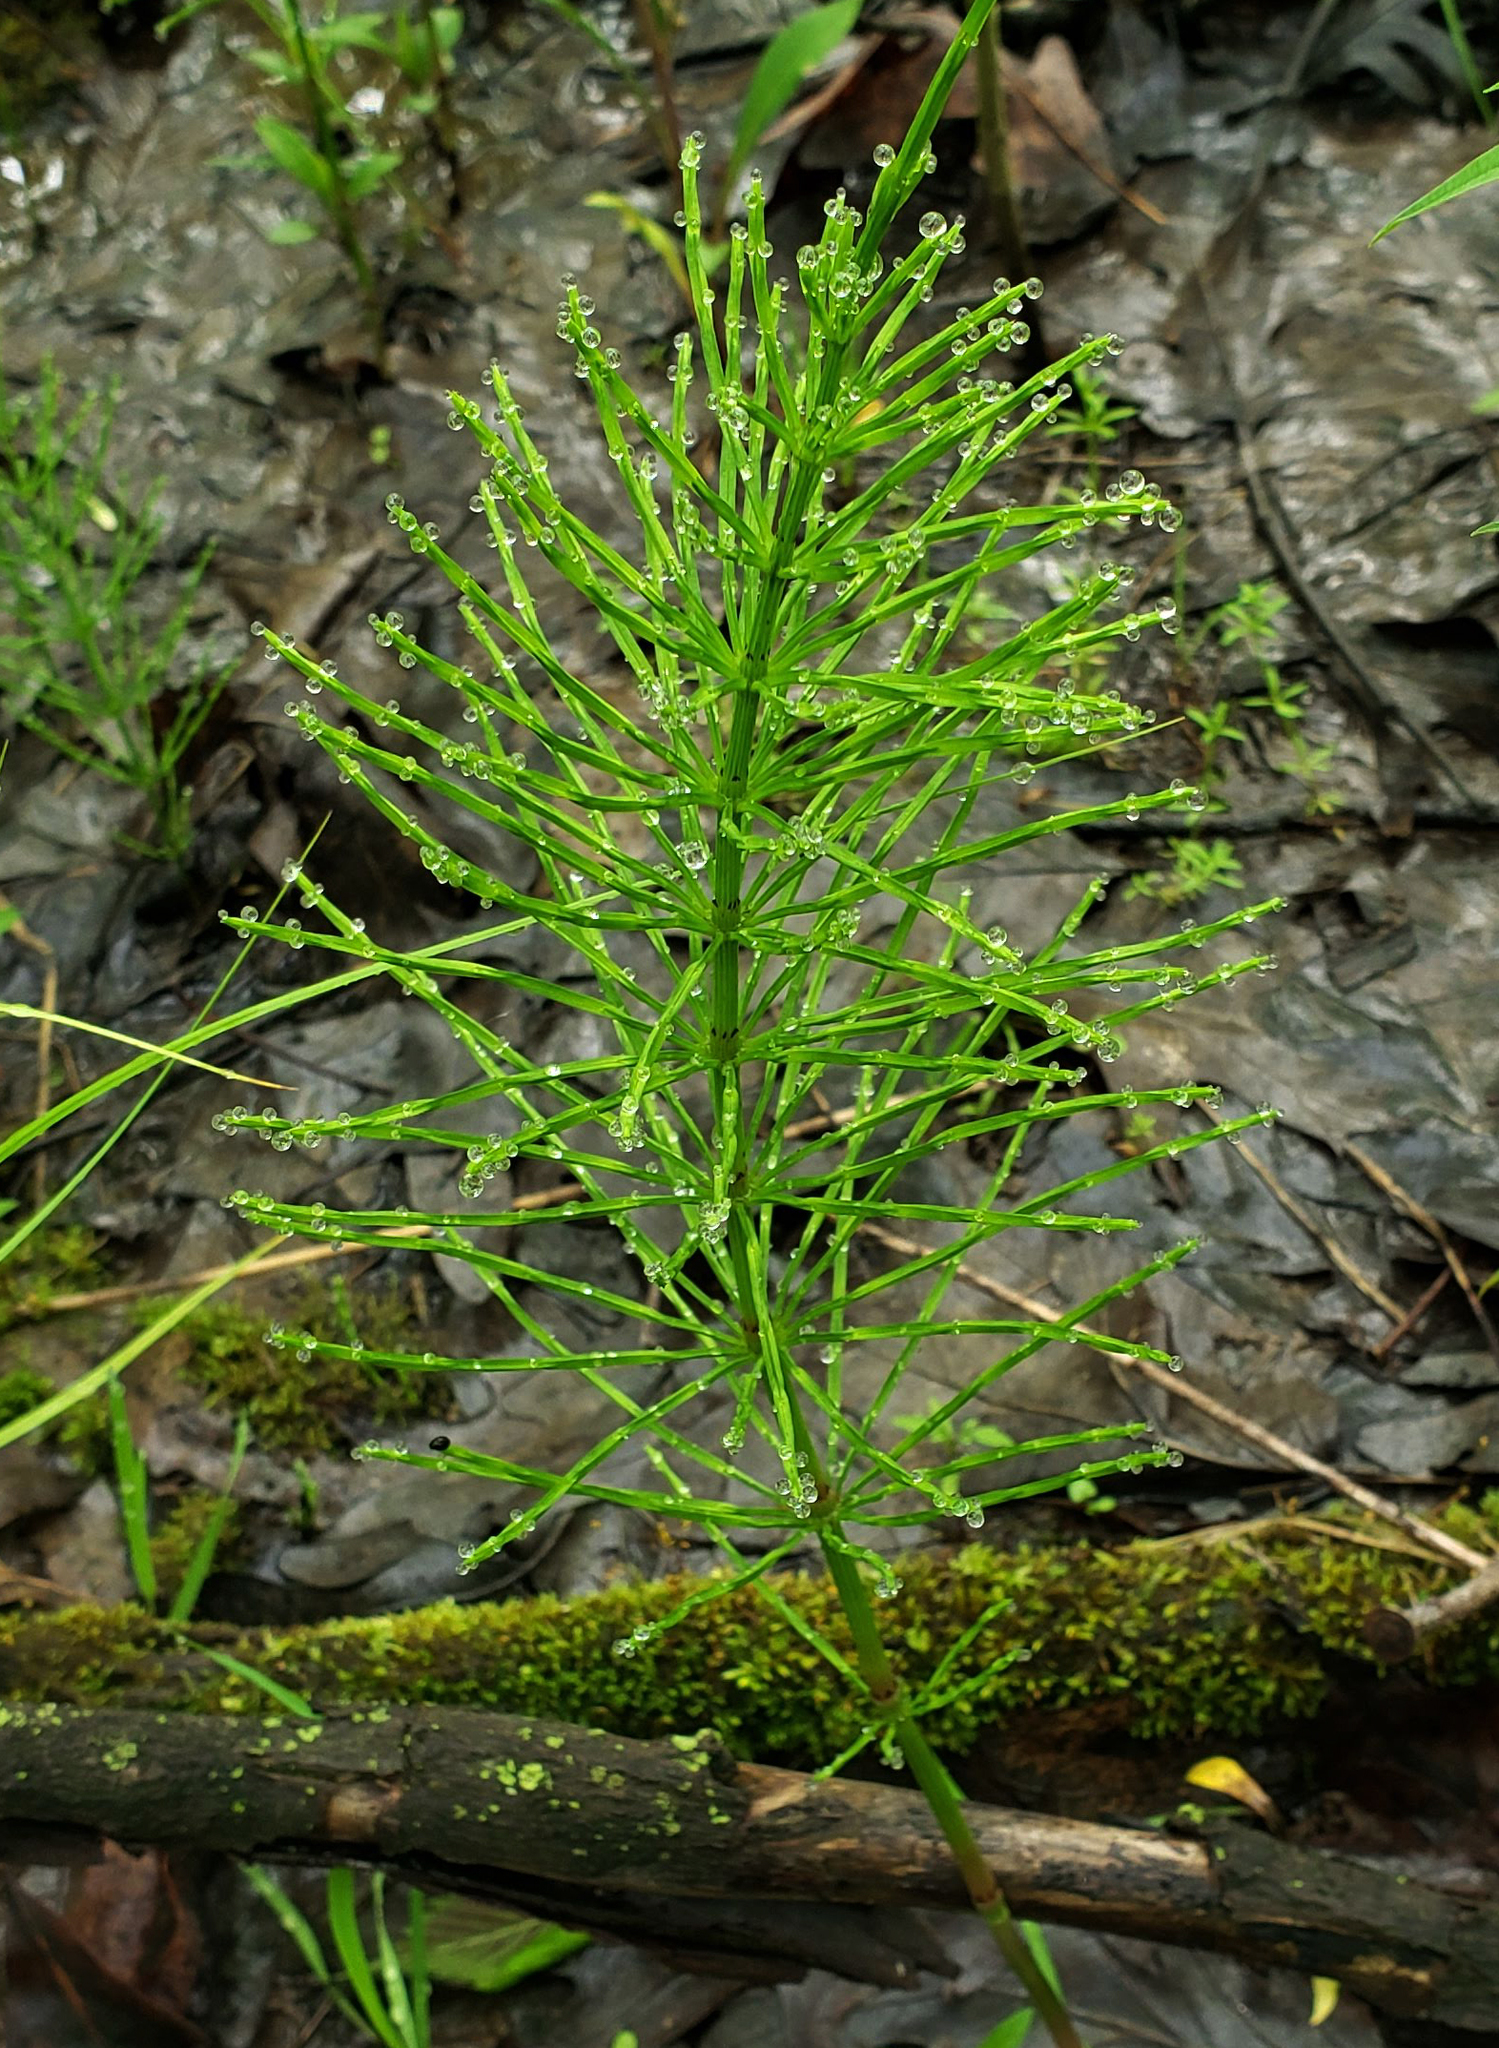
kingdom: Plantae
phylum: Tracheophyta
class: Polypodiopsida
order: Equisetales
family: Equisetaceae
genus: Equisetum
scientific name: Equisetum arvense
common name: Field horsetail
